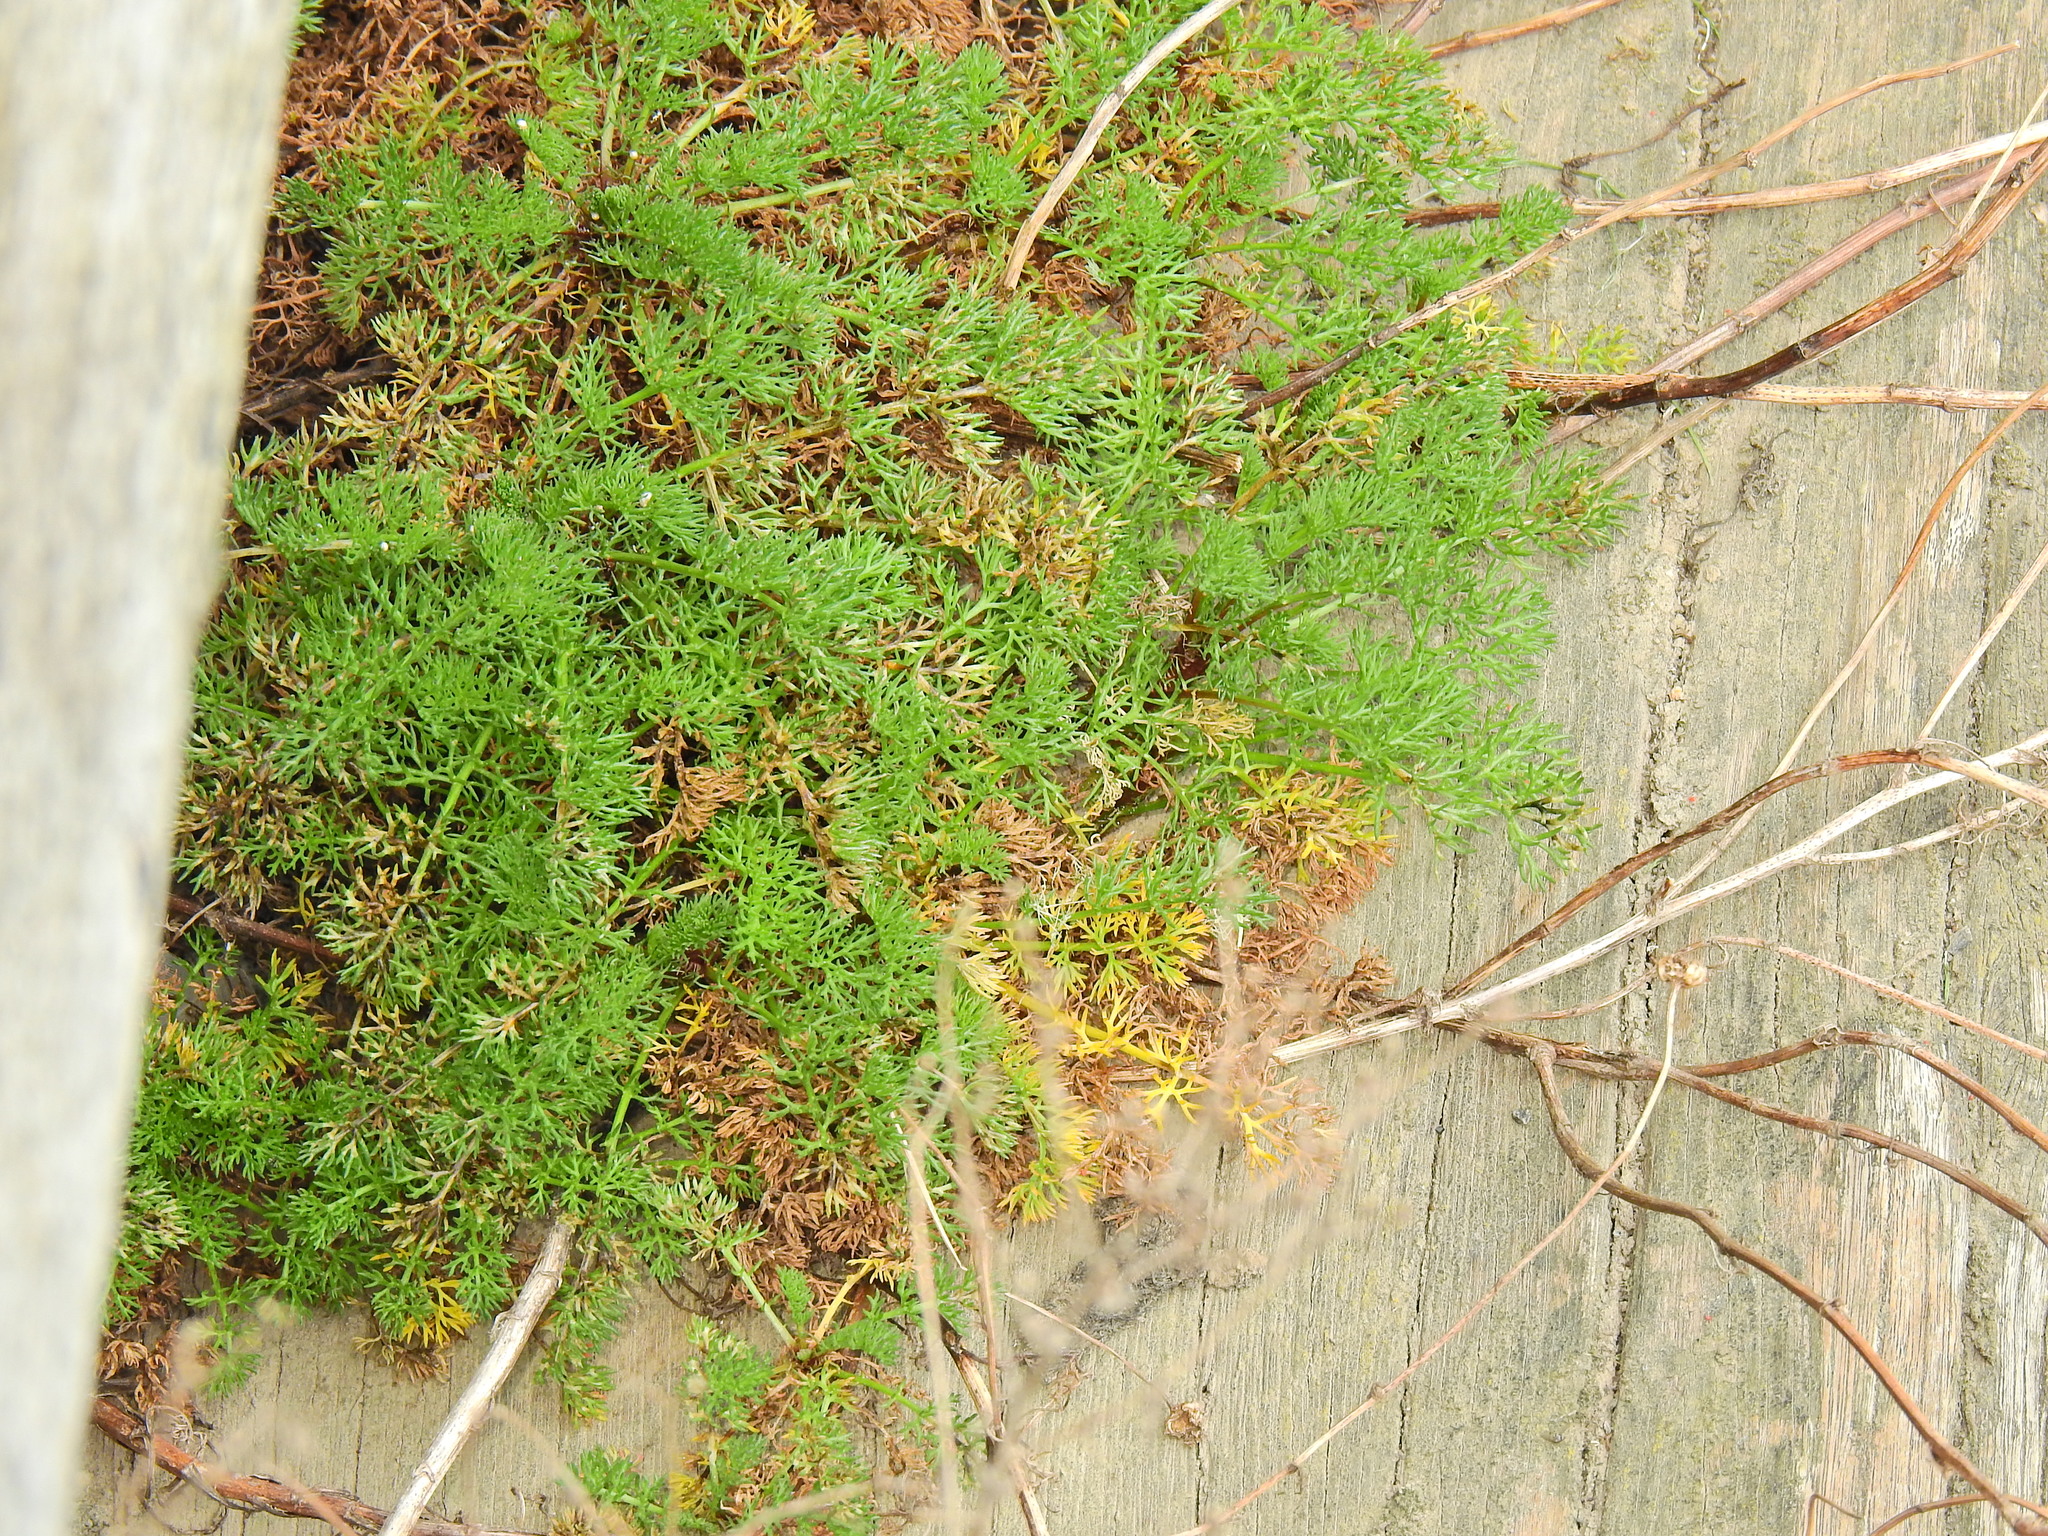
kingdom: Plantae
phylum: Tracheophyta
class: Magnoliopsida
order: Asterales
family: Asteraceae
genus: Tripleurospermum
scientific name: Tripleurospermum maritimum
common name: Sea mayweed
